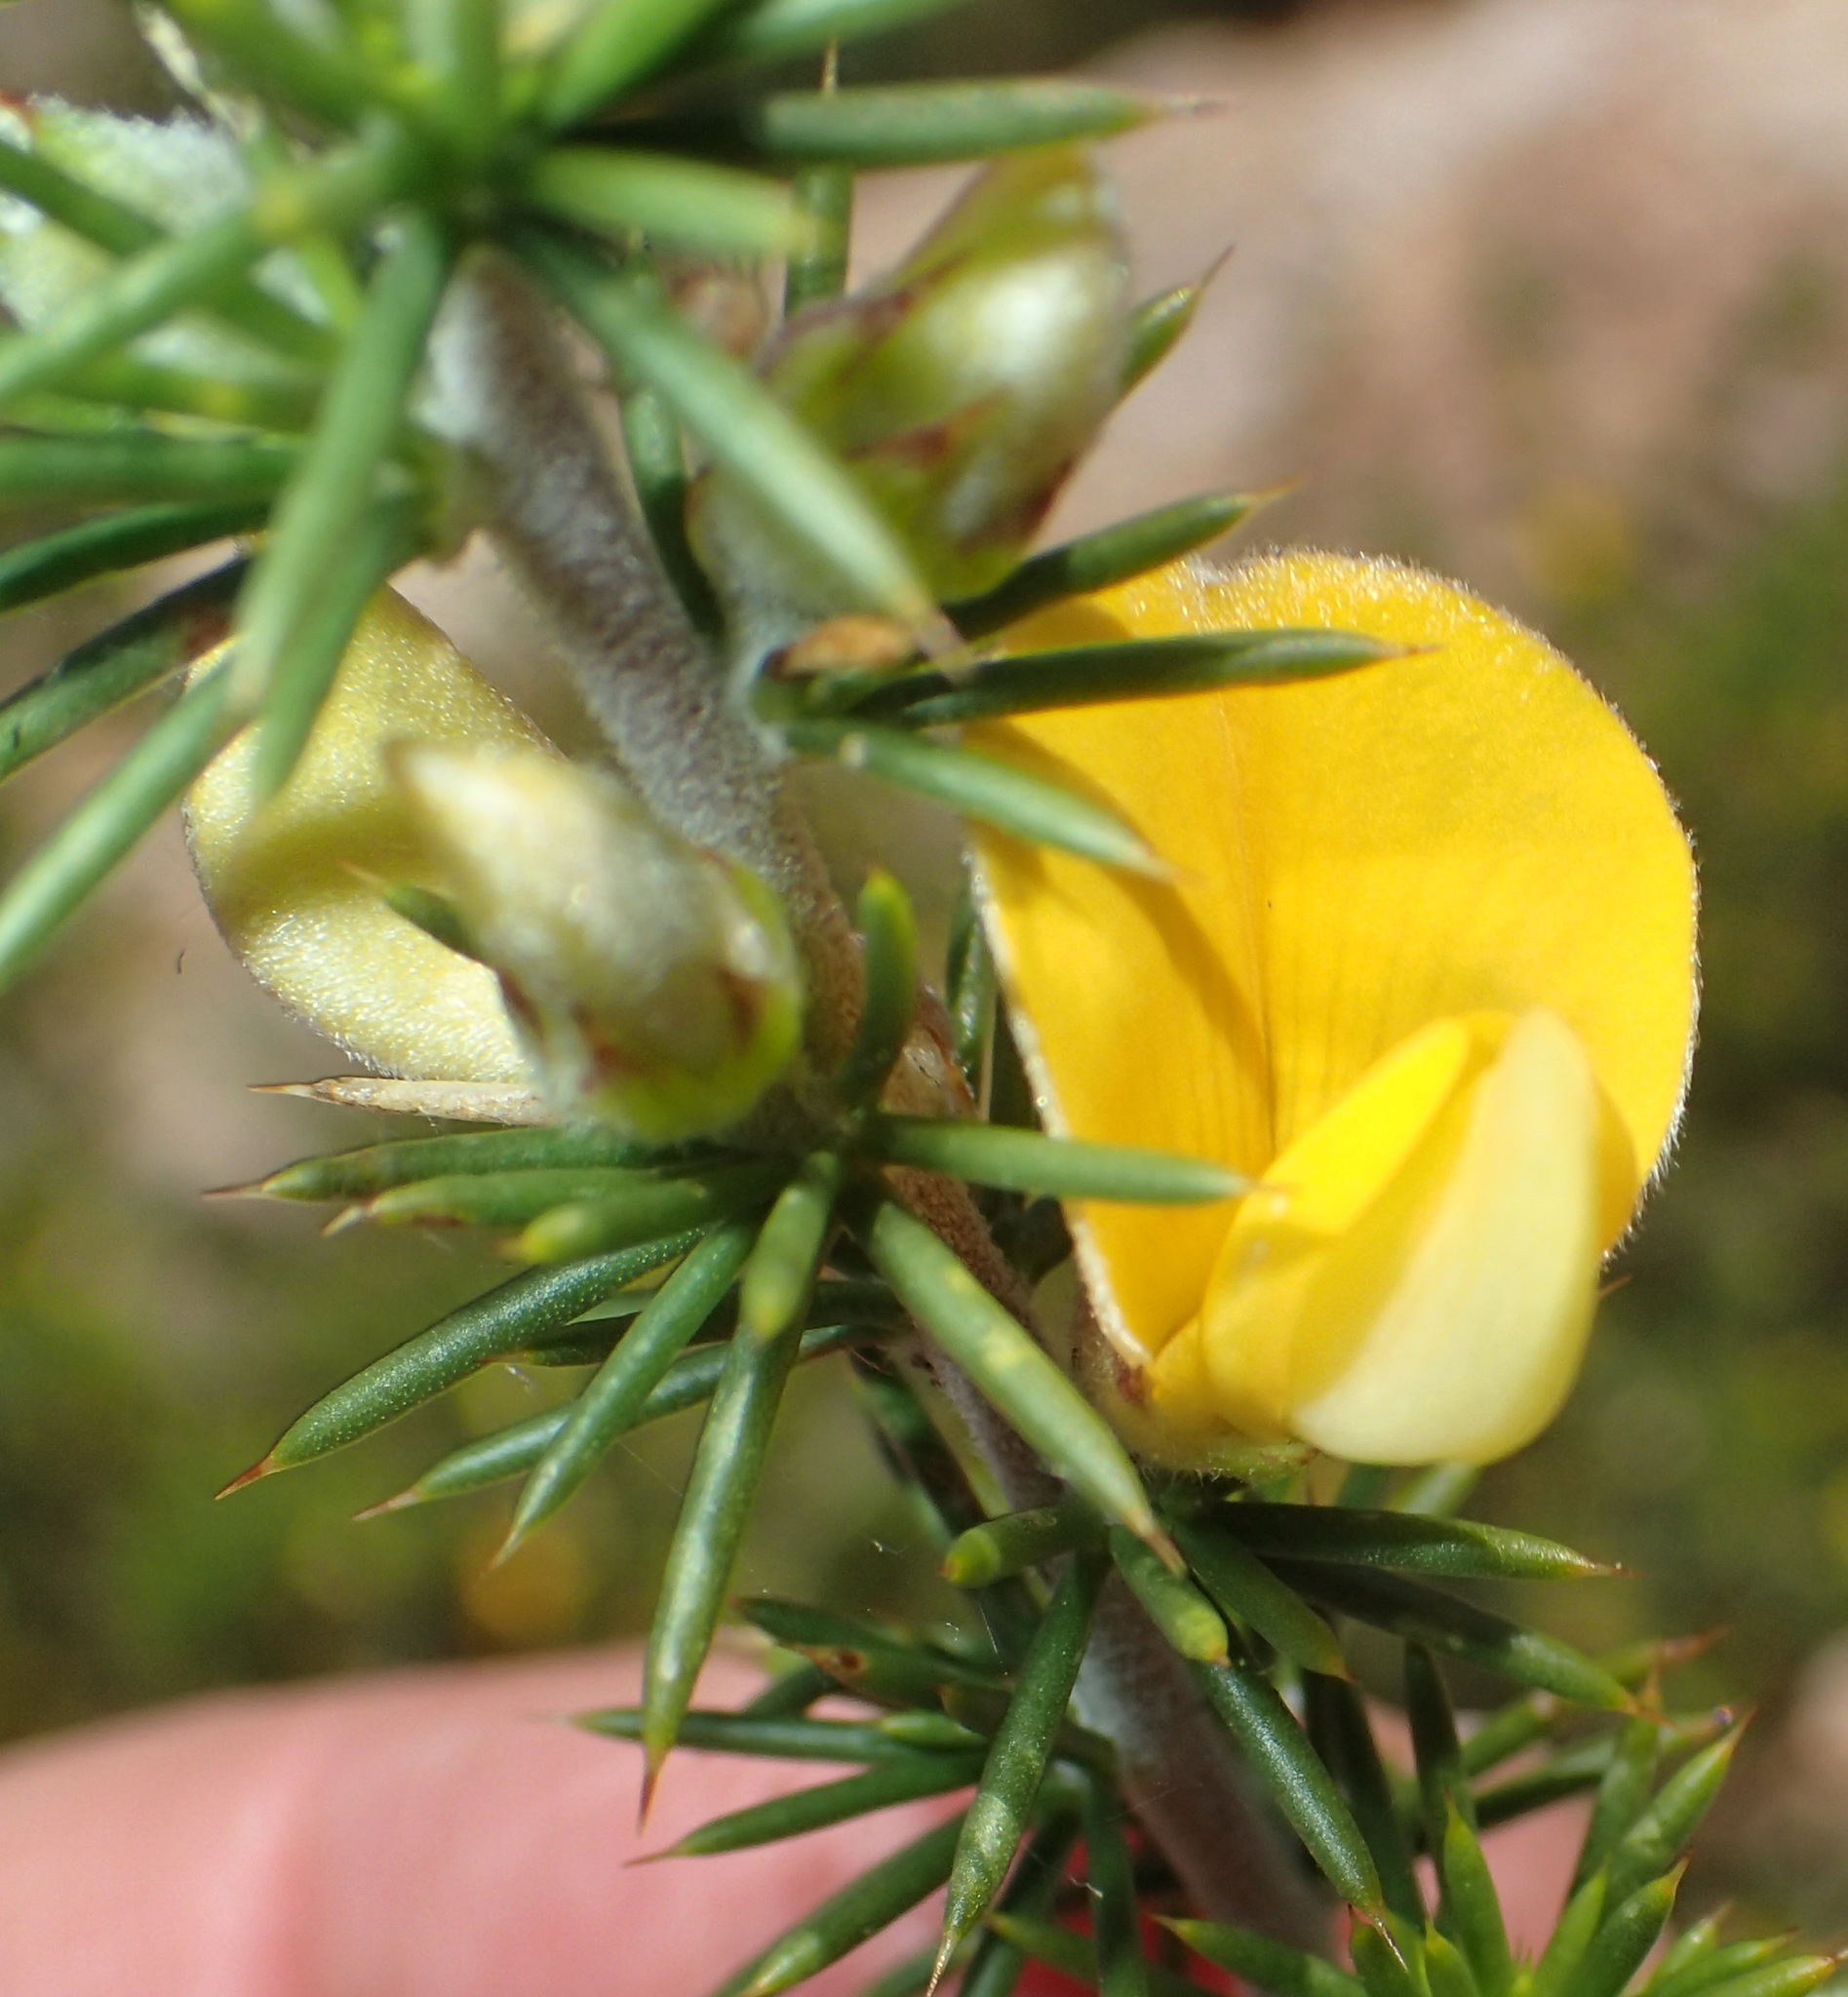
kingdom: Plantae
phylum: Tracheophyta
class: Magnoliopsida
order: Fabales
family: Fabaceae
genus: Aspalathus
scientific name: Aspalathus hirta
